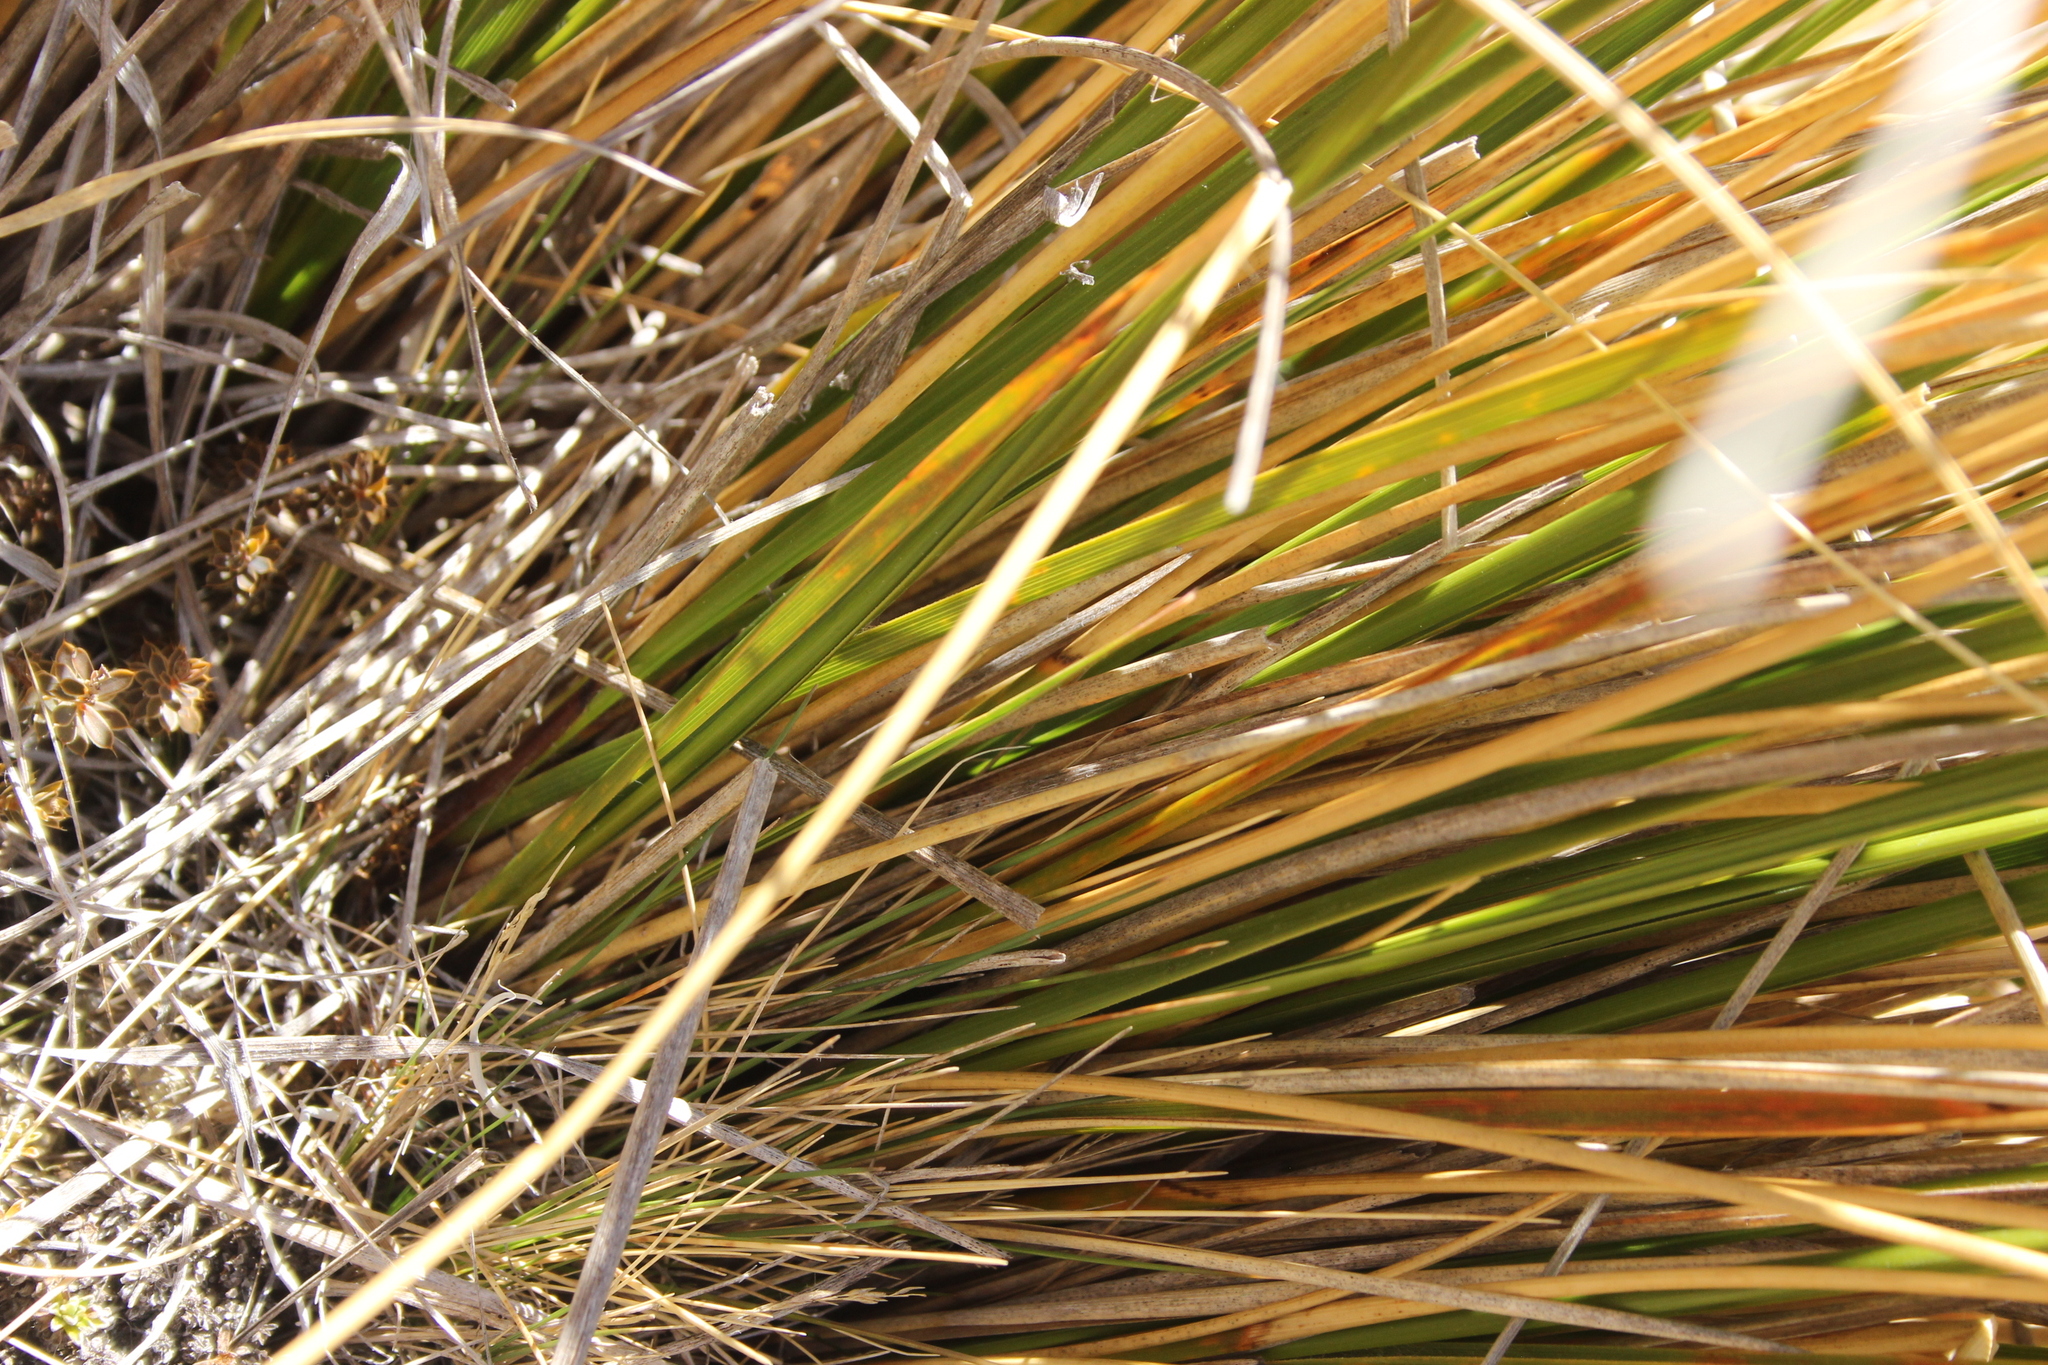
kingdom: Plantae
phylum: Tracheophyta
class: Liliopsida
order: Poales
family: Poaceae
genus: Chionochloa
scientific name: Chionochloa macra
